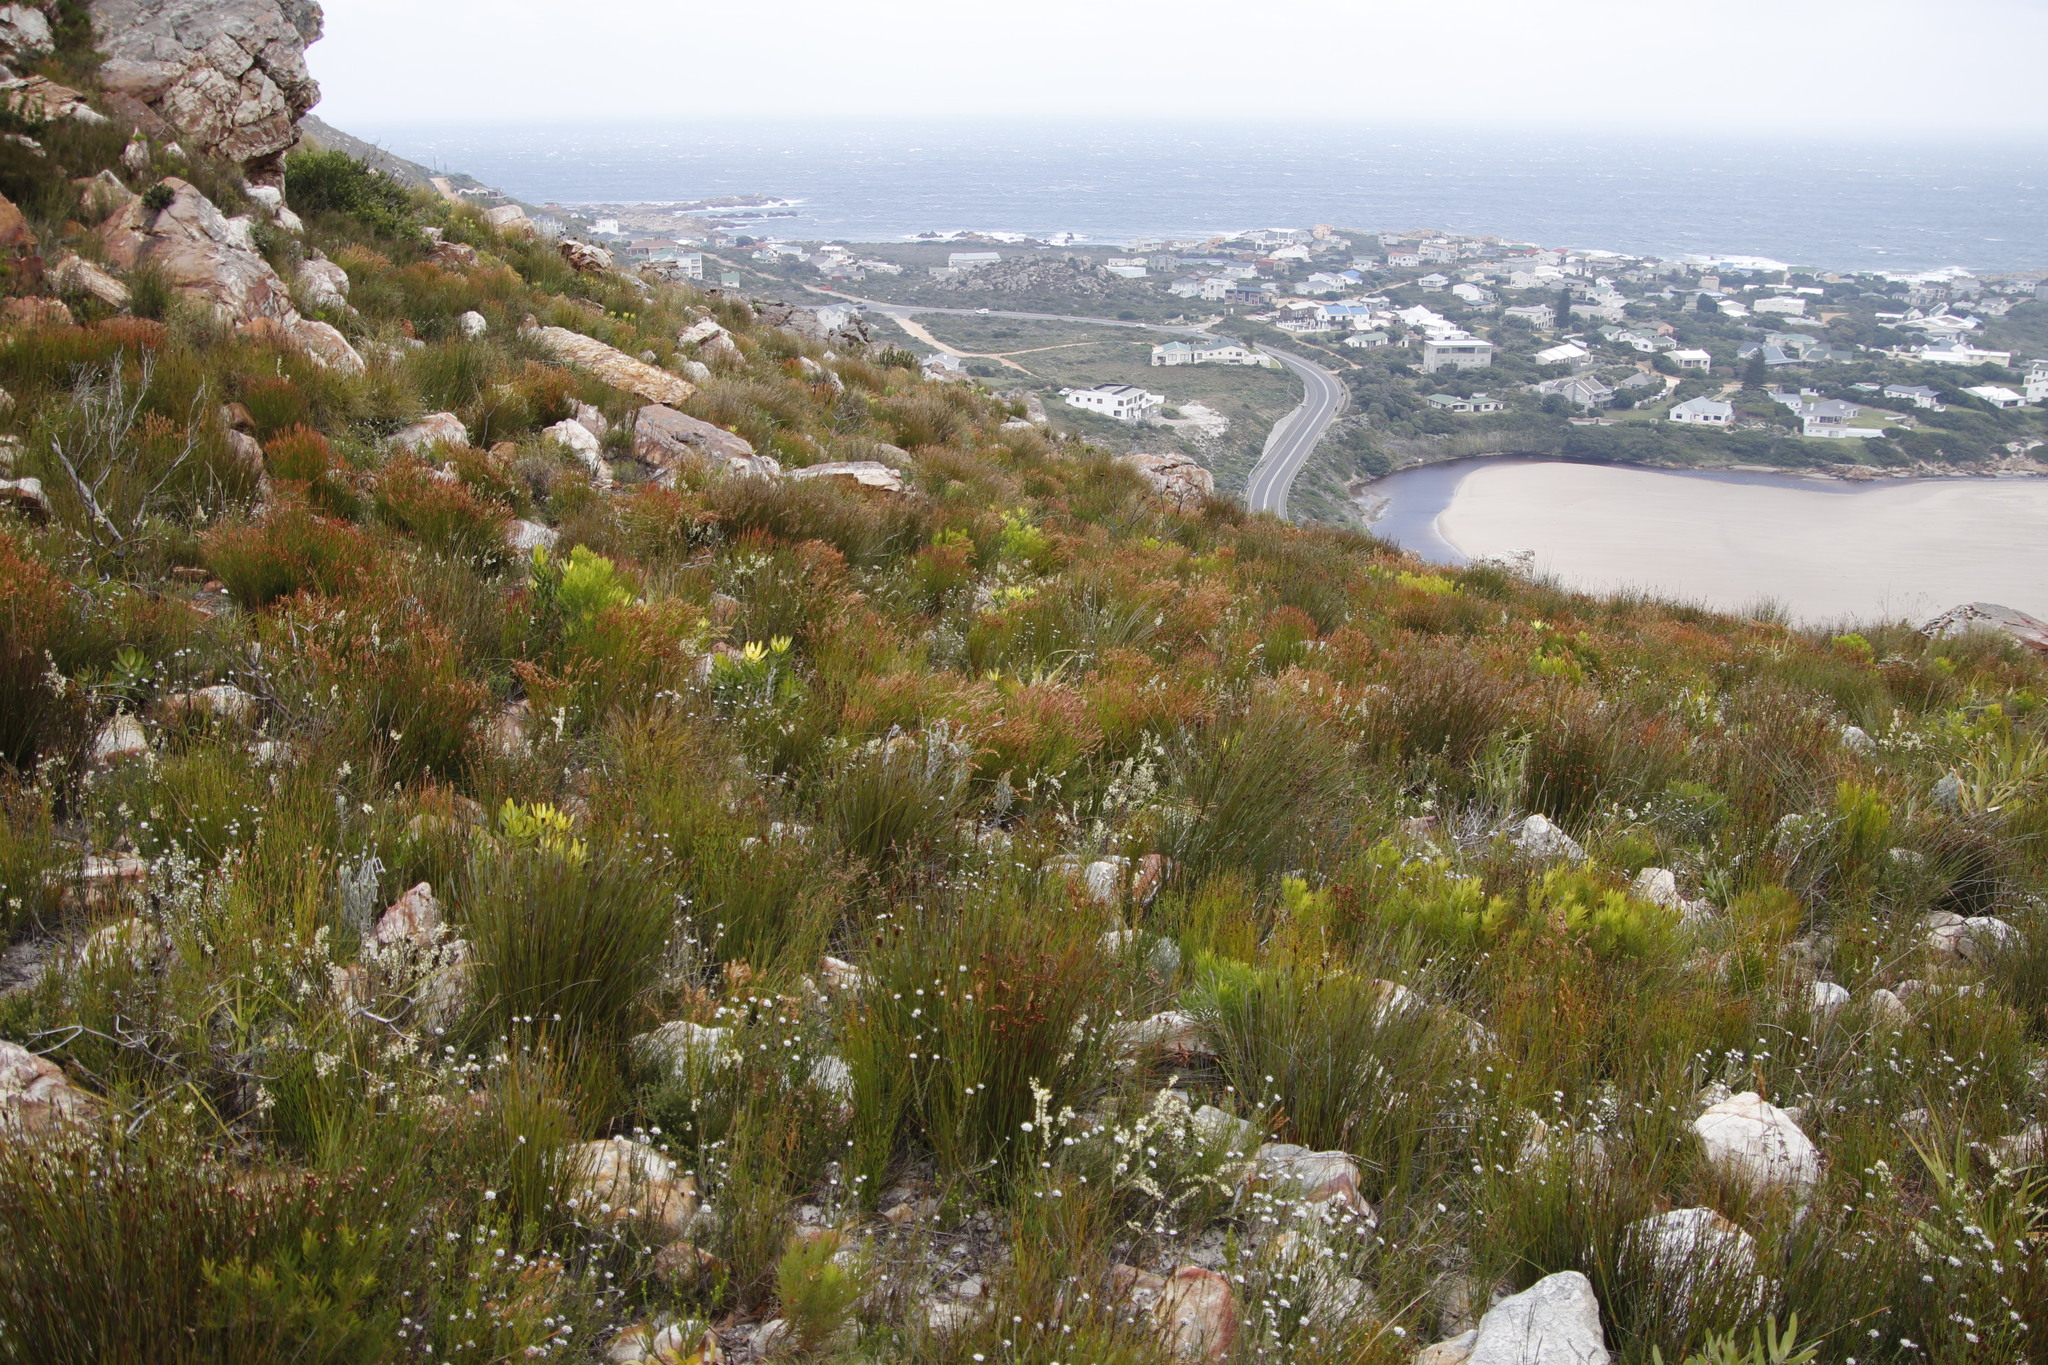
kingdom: Plantae
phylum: Tracheophyta
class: Liliopsida
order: Poales
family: Restionaceae
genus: Elegia
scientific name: Elegia stipularis
